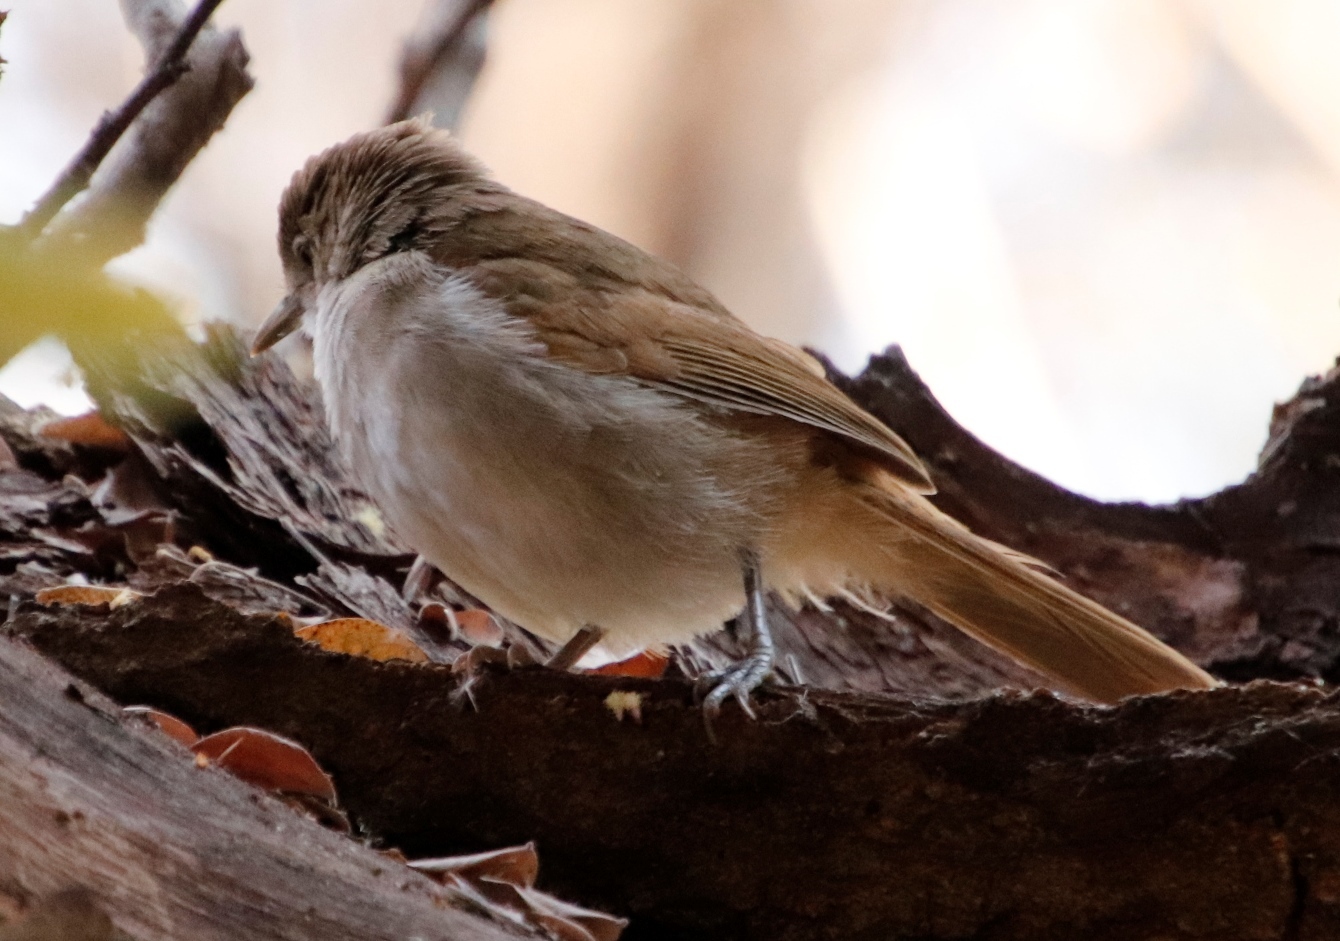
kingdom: Animalia
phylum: Chordata
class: Aves
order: Passeriformes
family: Pycnonotidae
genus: Phyllastrephus
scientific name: Phyllastrephus terrestris
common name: Terrestrial brownbul
